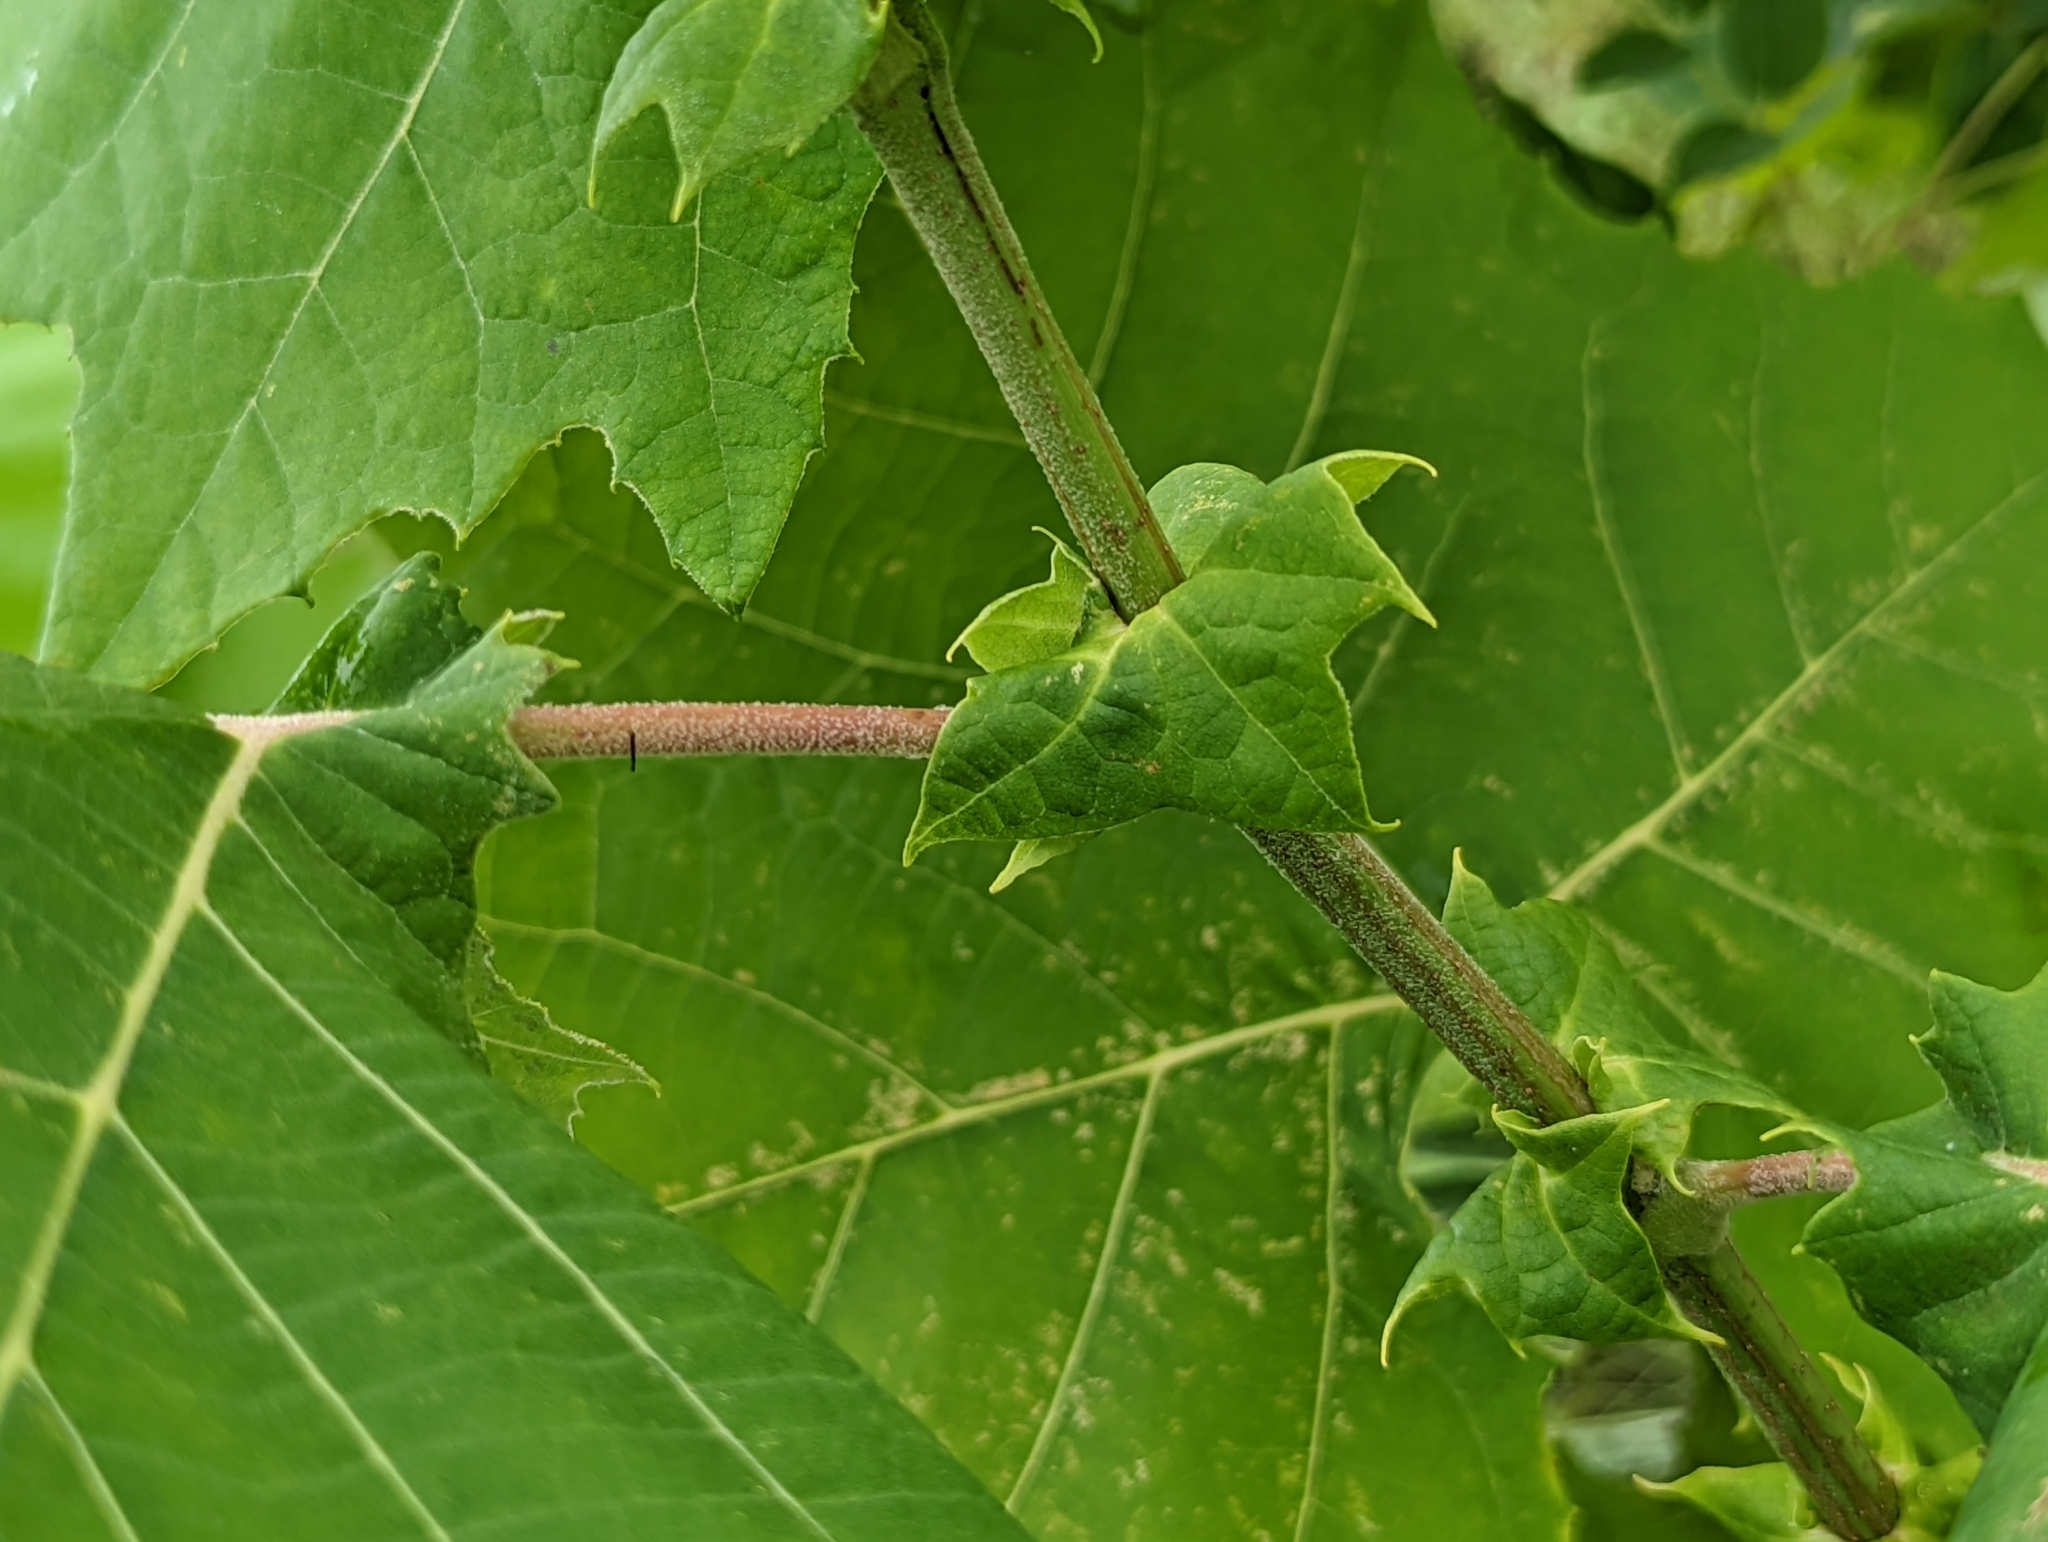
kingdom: Plantae
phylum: Tracheophyta
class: Magnoliopsida
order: Proteales
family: Platanaceae
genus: Platanus
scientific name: Platanus occidentalis
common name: American sycamore
